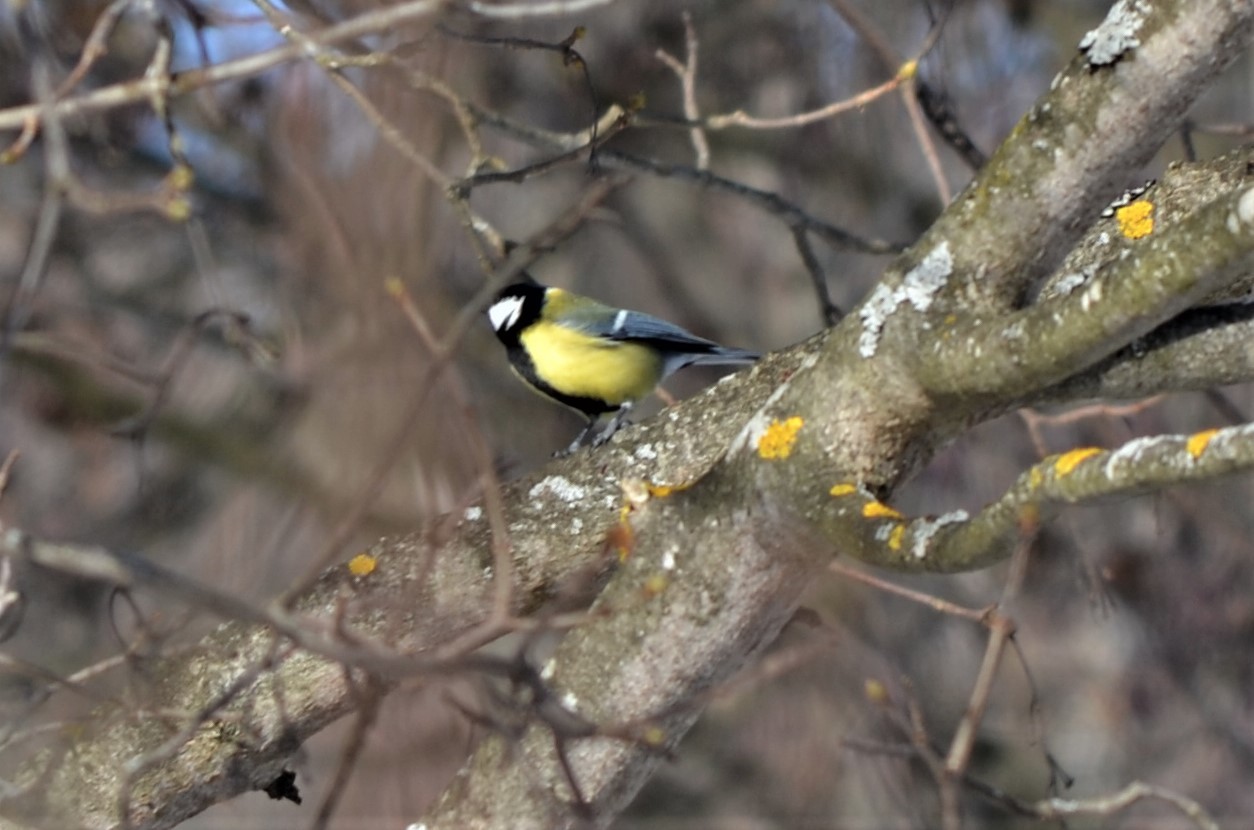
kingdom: Animalia
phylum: Chordata
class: Aves
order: Passeriformes
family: Paridae
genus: Parus
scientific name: Parus major
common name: Great tit
